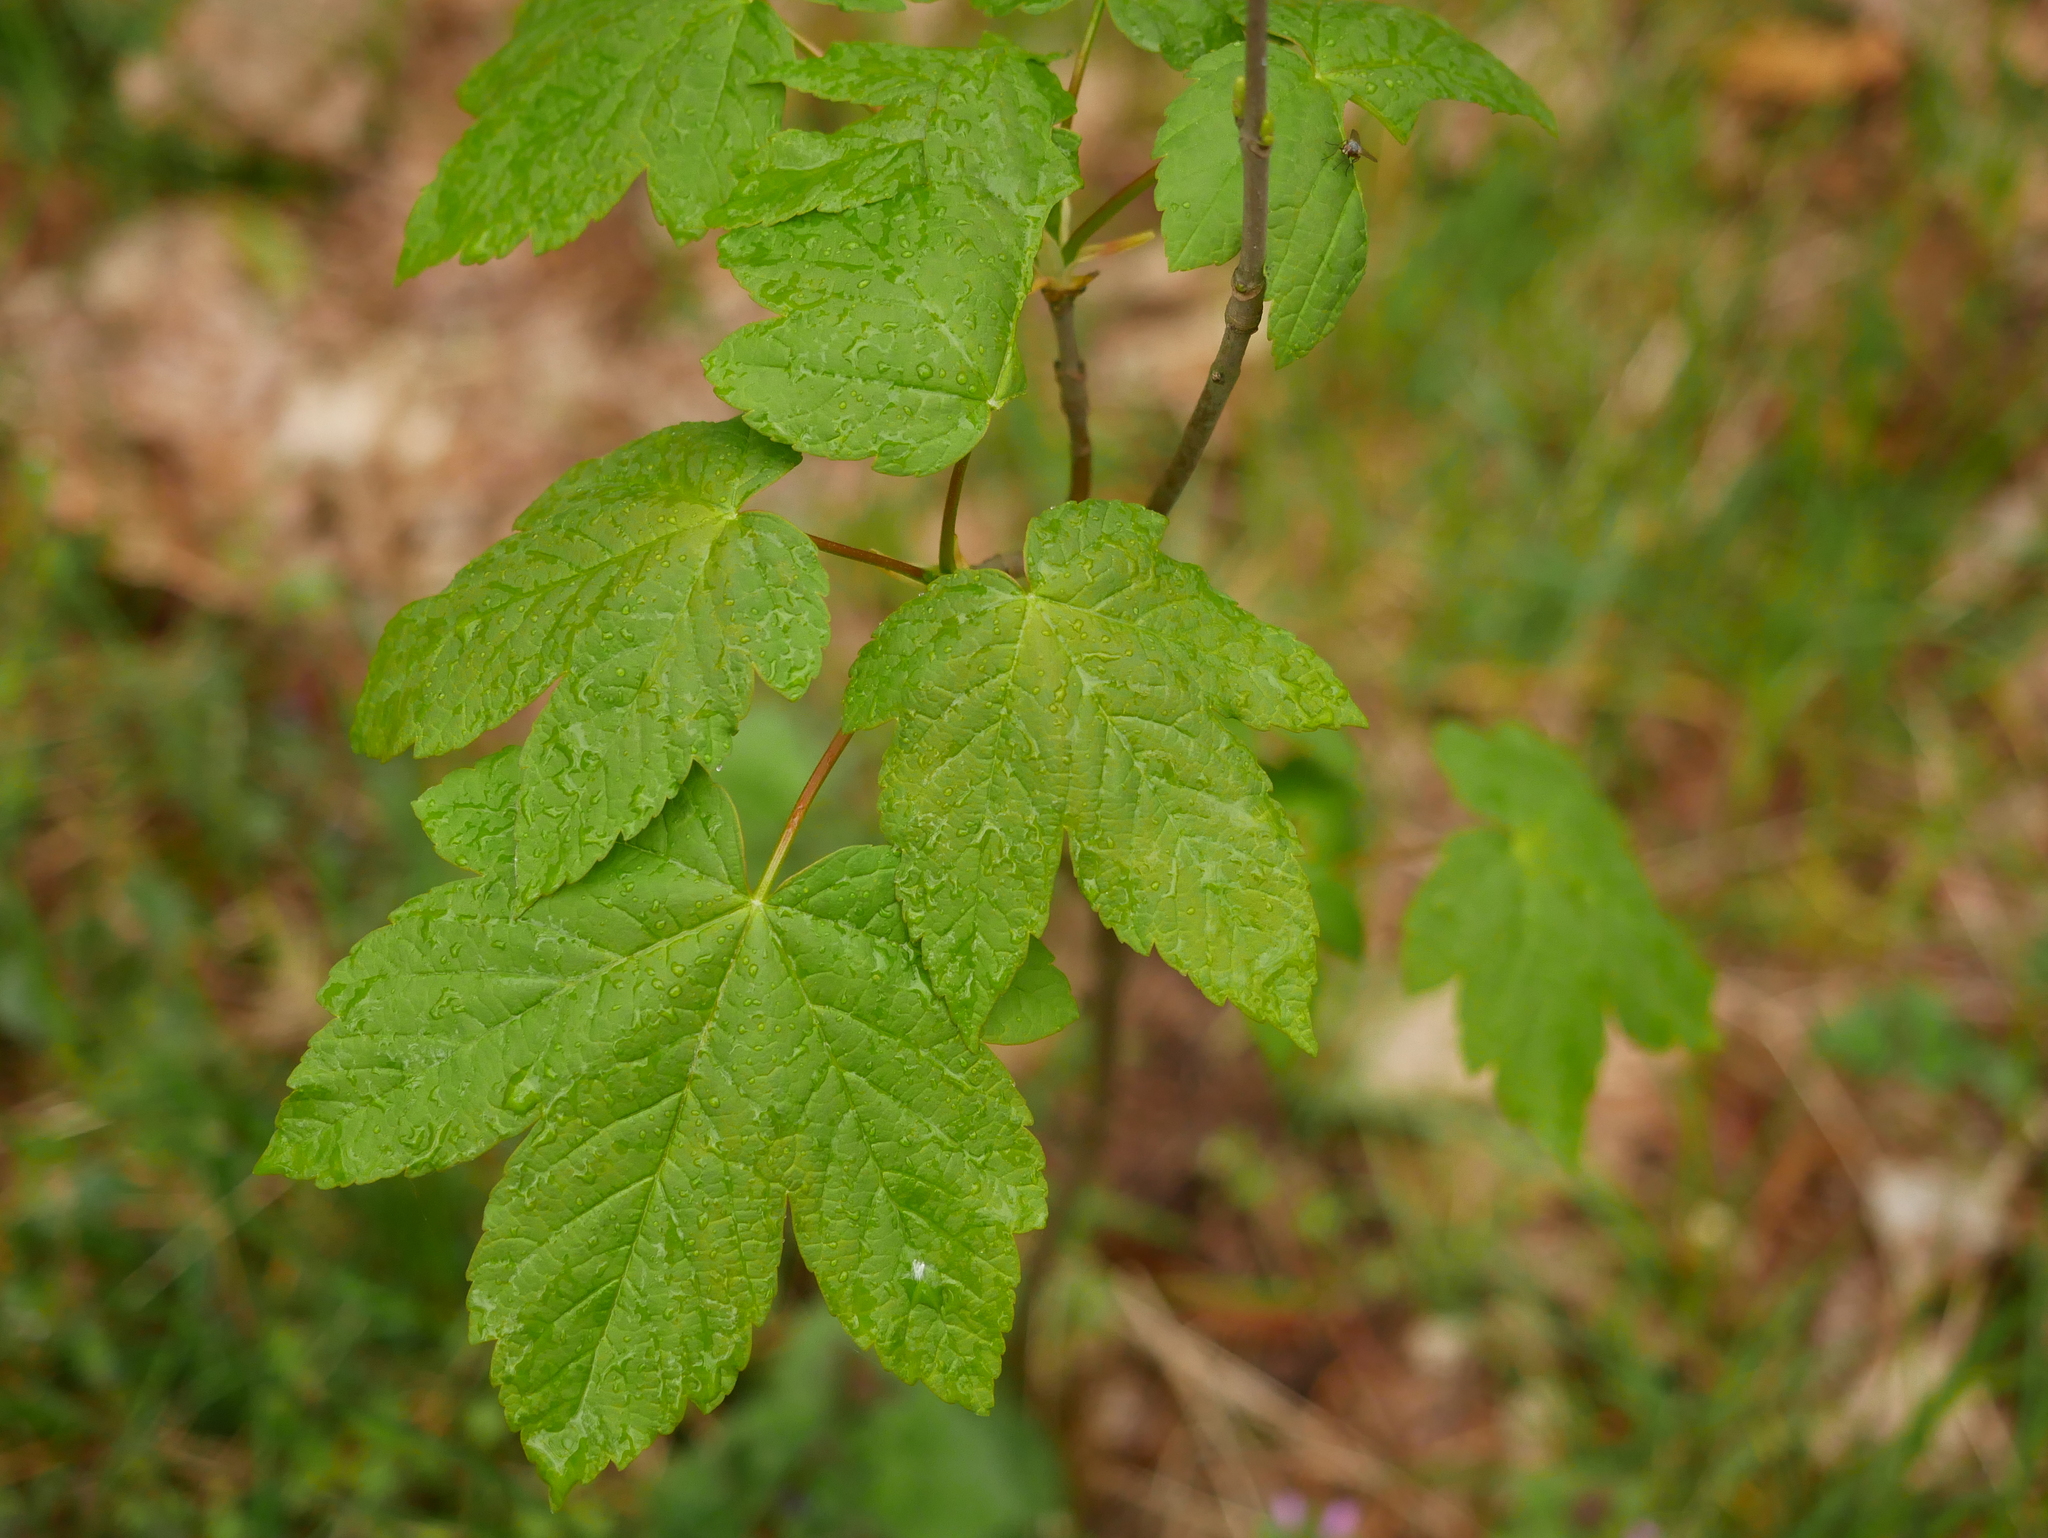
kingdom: Plantae
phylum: Tracheophyta
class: Magnoliopsida
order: Sapindales
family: Sapindaceae
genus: Acer
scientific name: Acer pseudoplatanus
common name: Sycamore
